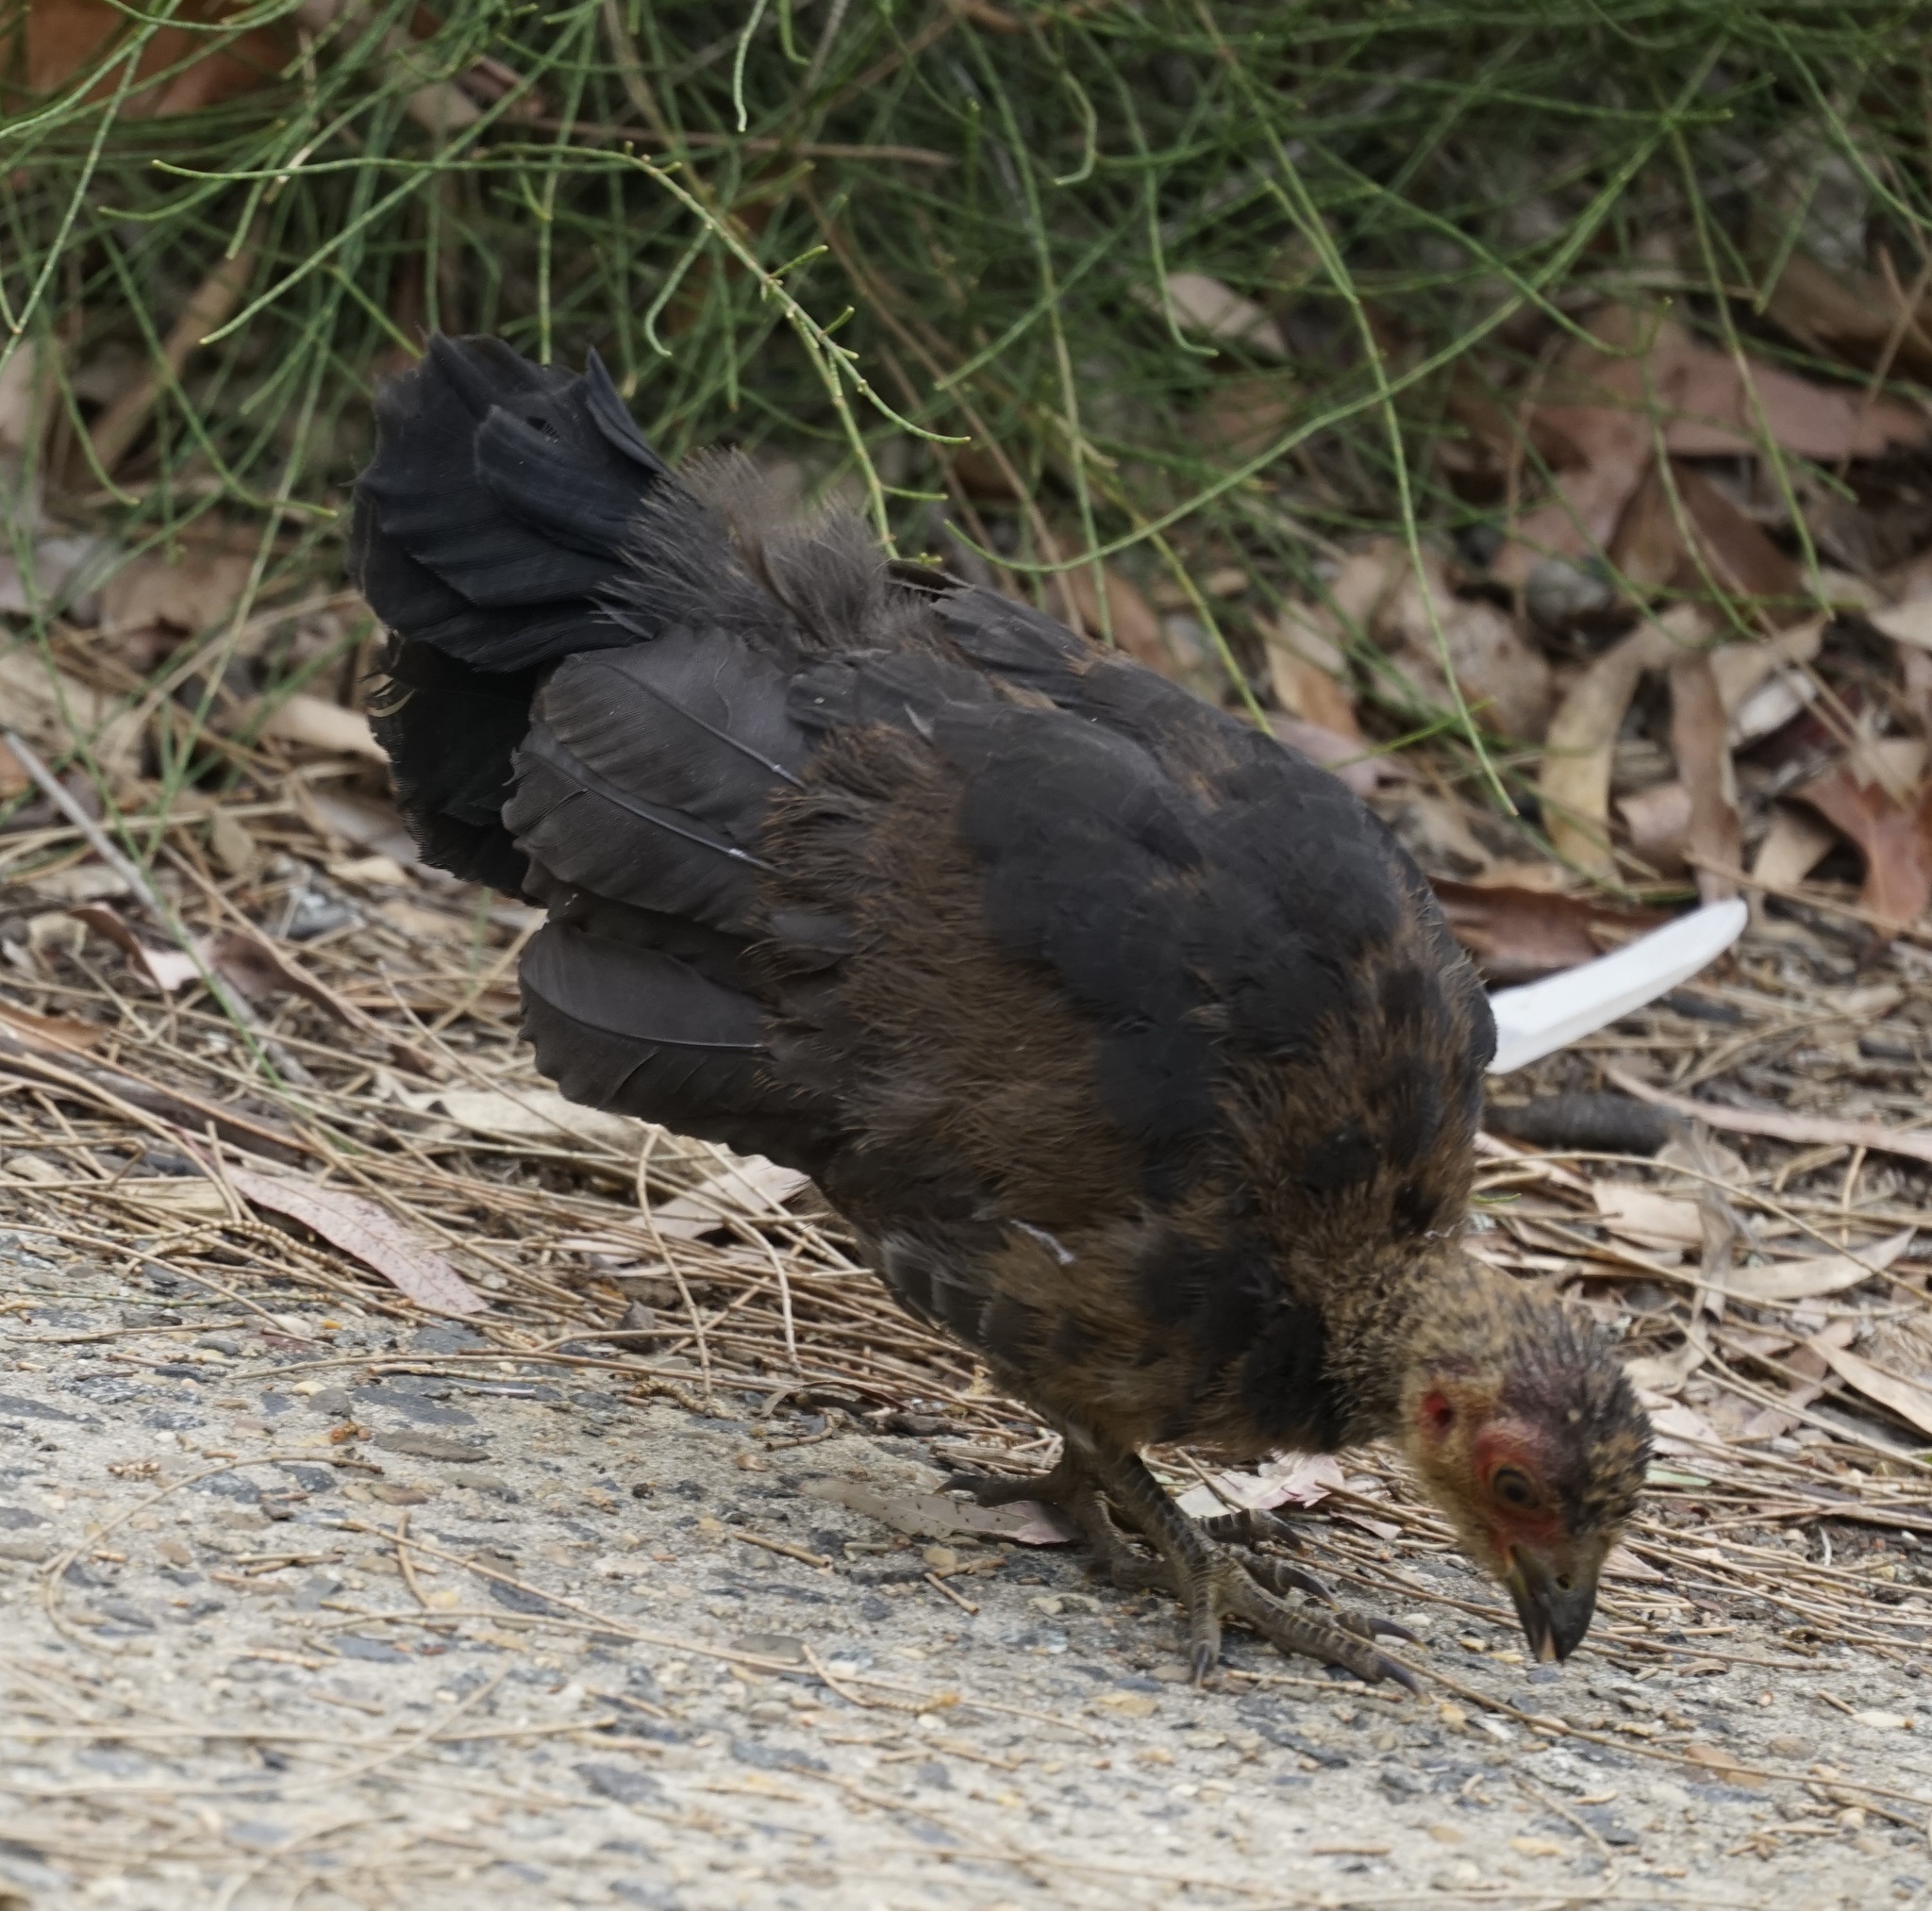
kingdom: Animalia
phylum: Chordata
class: Aves
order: Galliformes
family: Megapodiidae
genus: Alectura
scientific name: Alectura lathami
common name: Australian brushturkey
